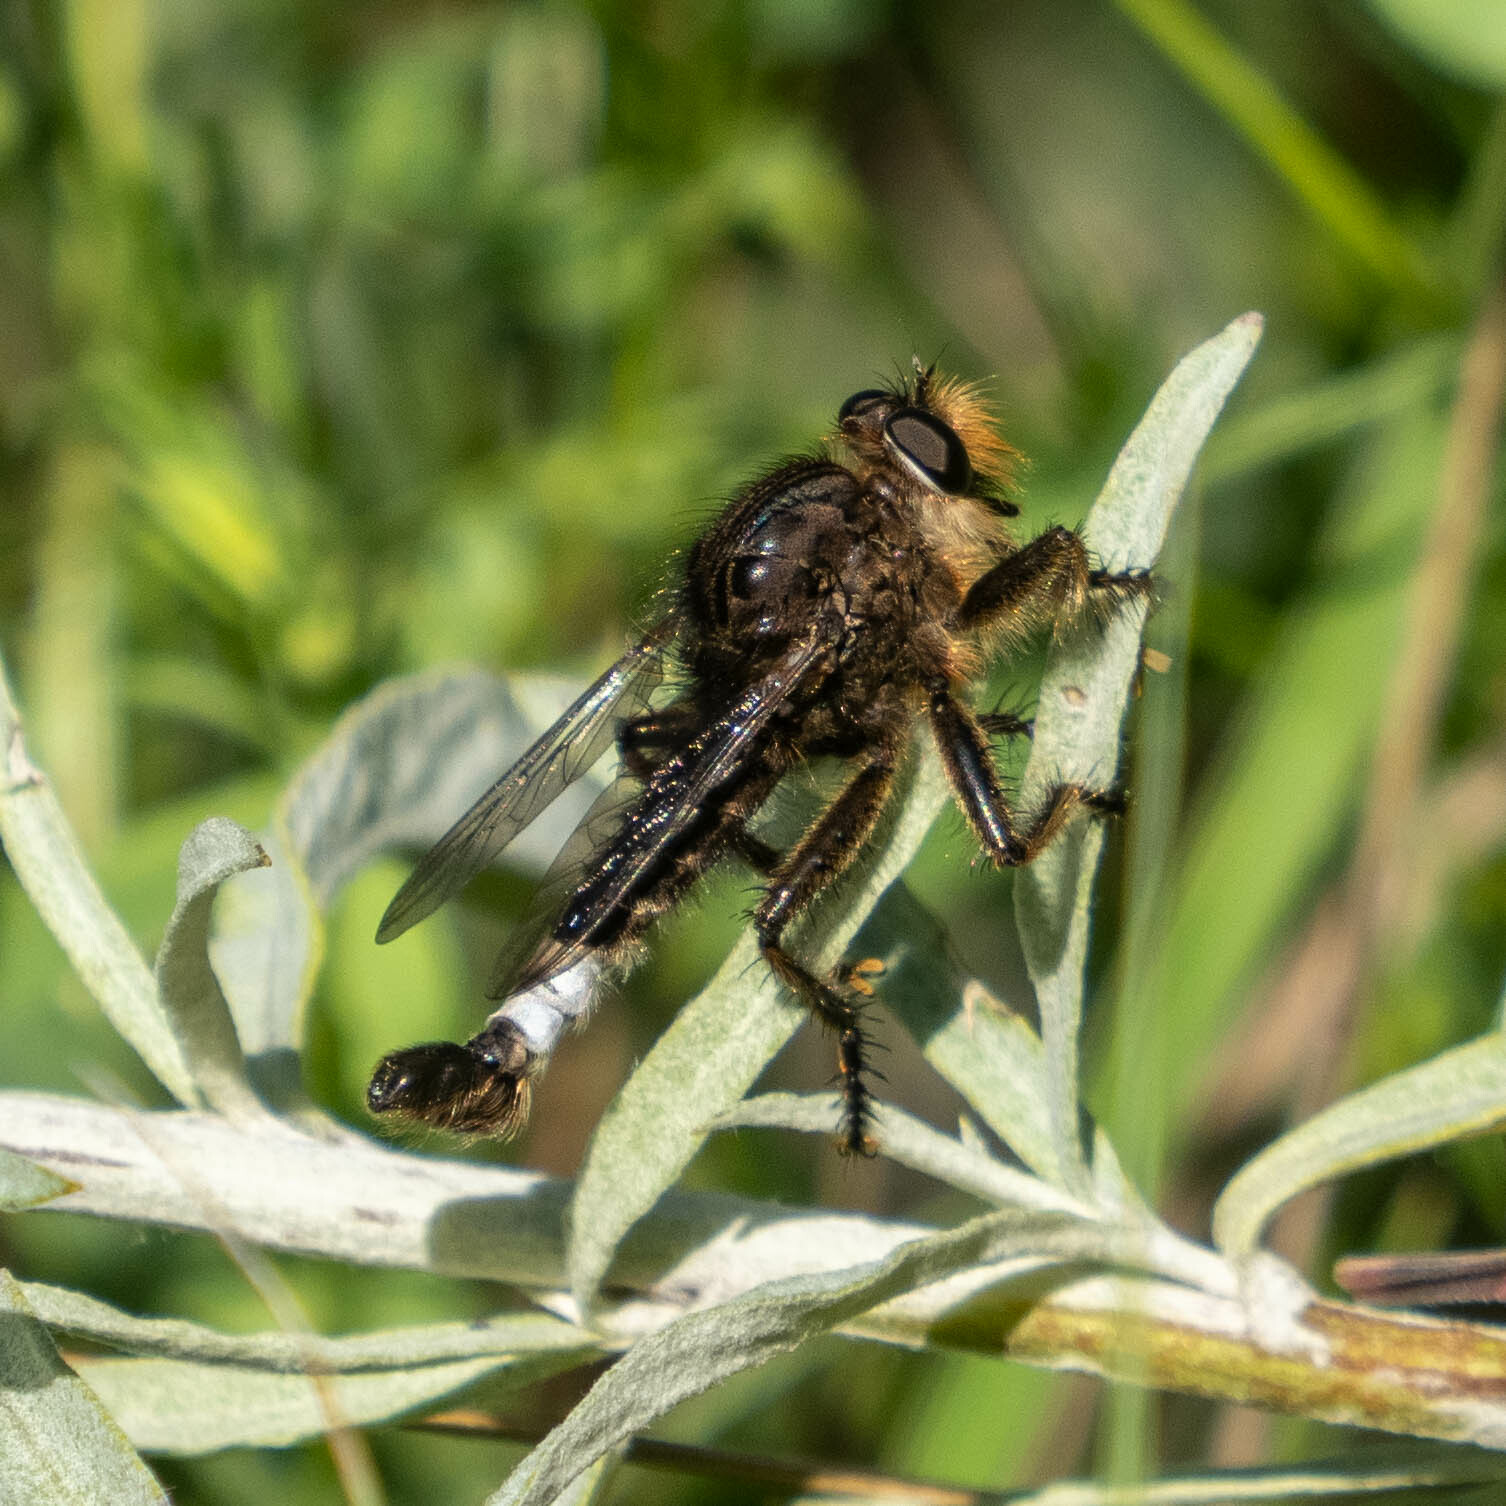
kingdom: Animalia
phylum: Arthropoda
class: Insecta
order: Diptera
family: Asilidae
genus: Efferia
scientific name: Efferia pogonias
